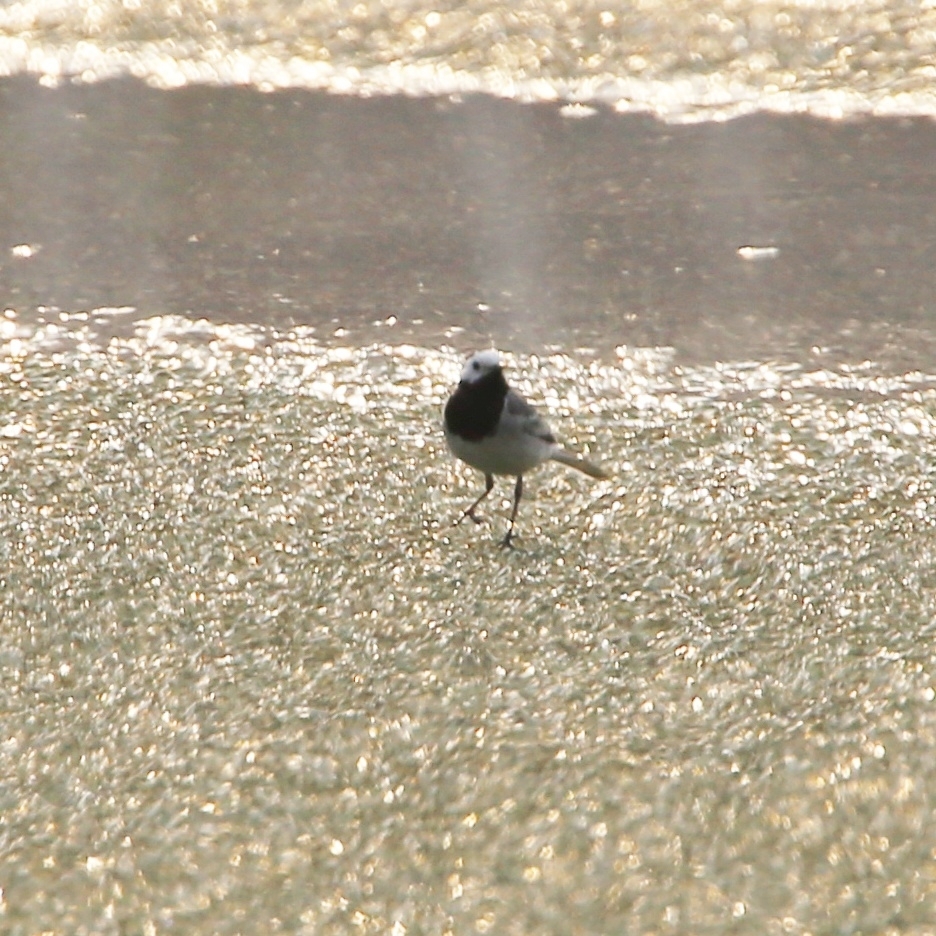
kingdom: Animalia
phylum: Chordata
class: Aves
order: Passeriformes
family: Motacillidae
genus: Motacilla
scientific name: Motacilla alba
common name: White wagtail
